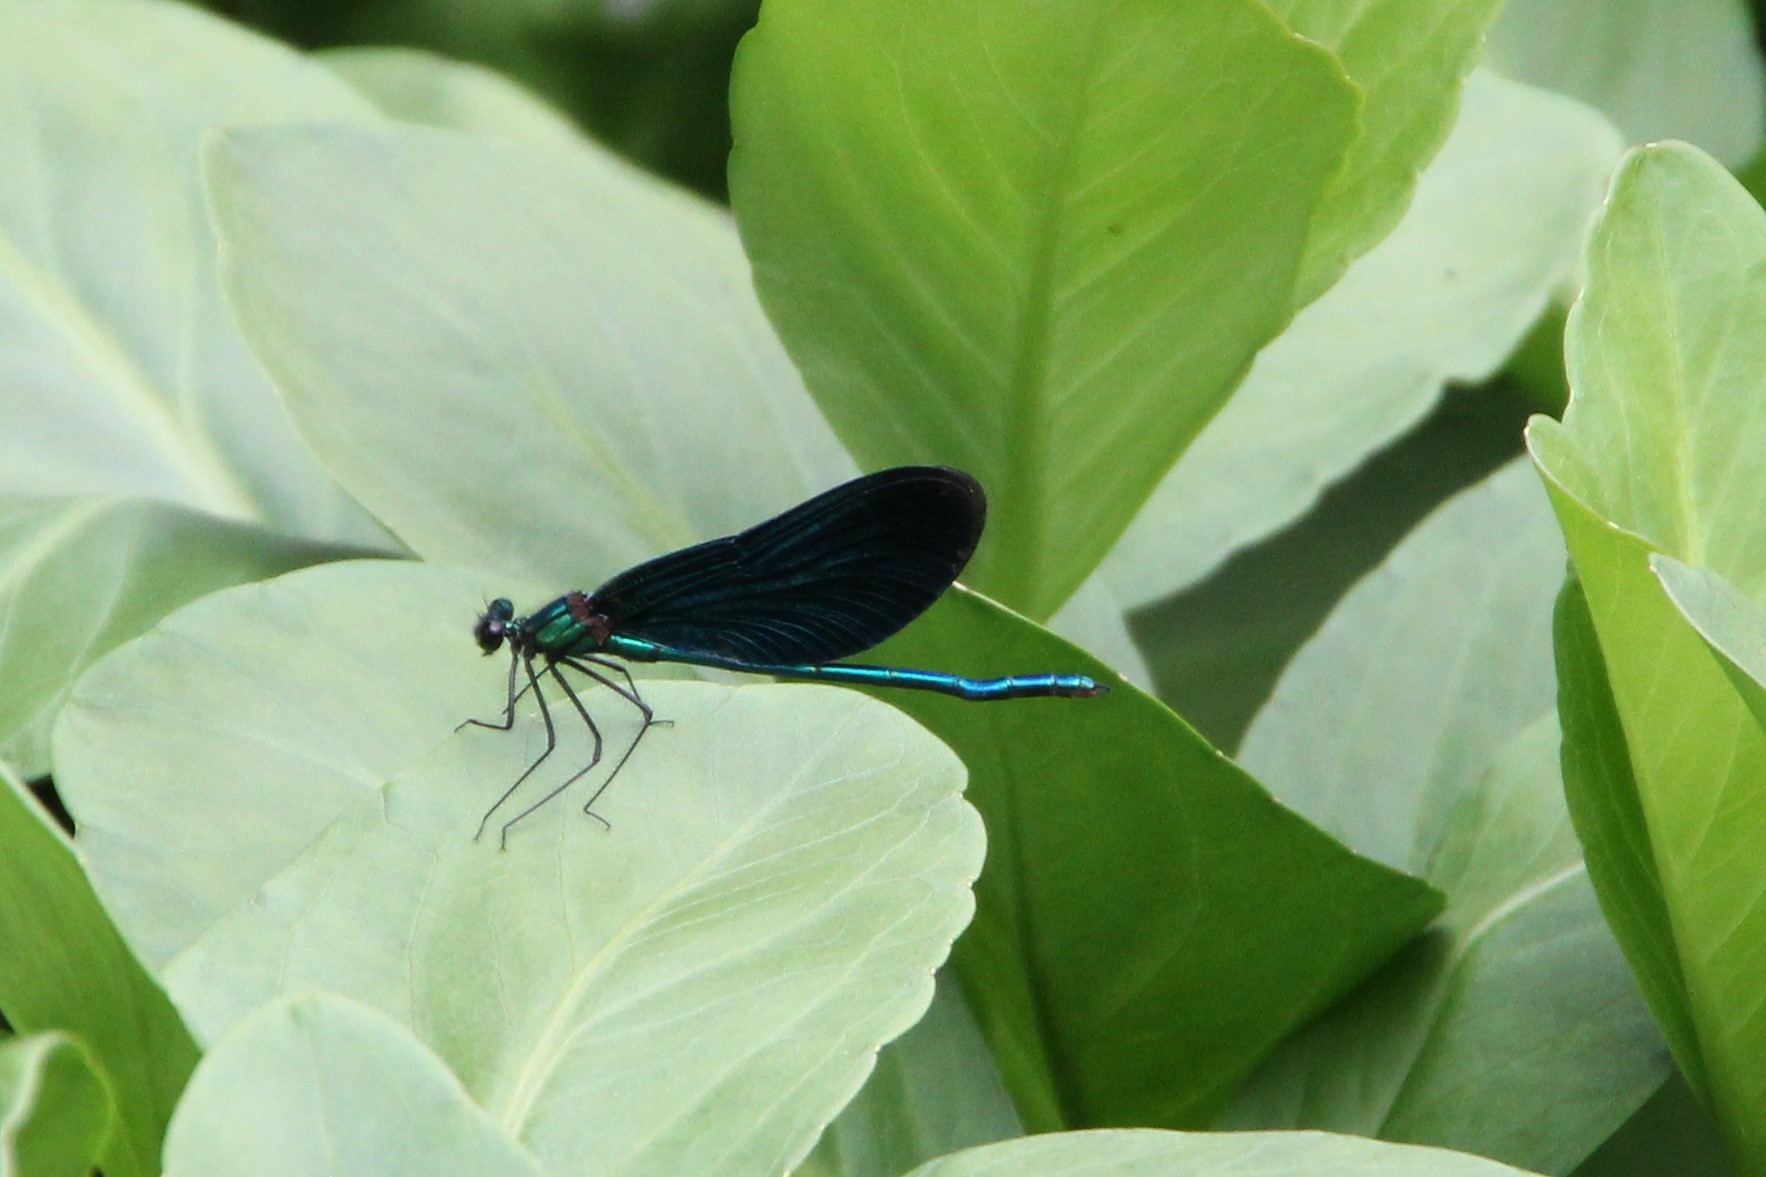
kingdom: Animalia
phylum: Arthropoda
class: Insecta
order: Odonata
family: Calopterygidae
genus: Calopteryx
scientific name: Calopteryx virgo
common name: Beautiful demoiselle
